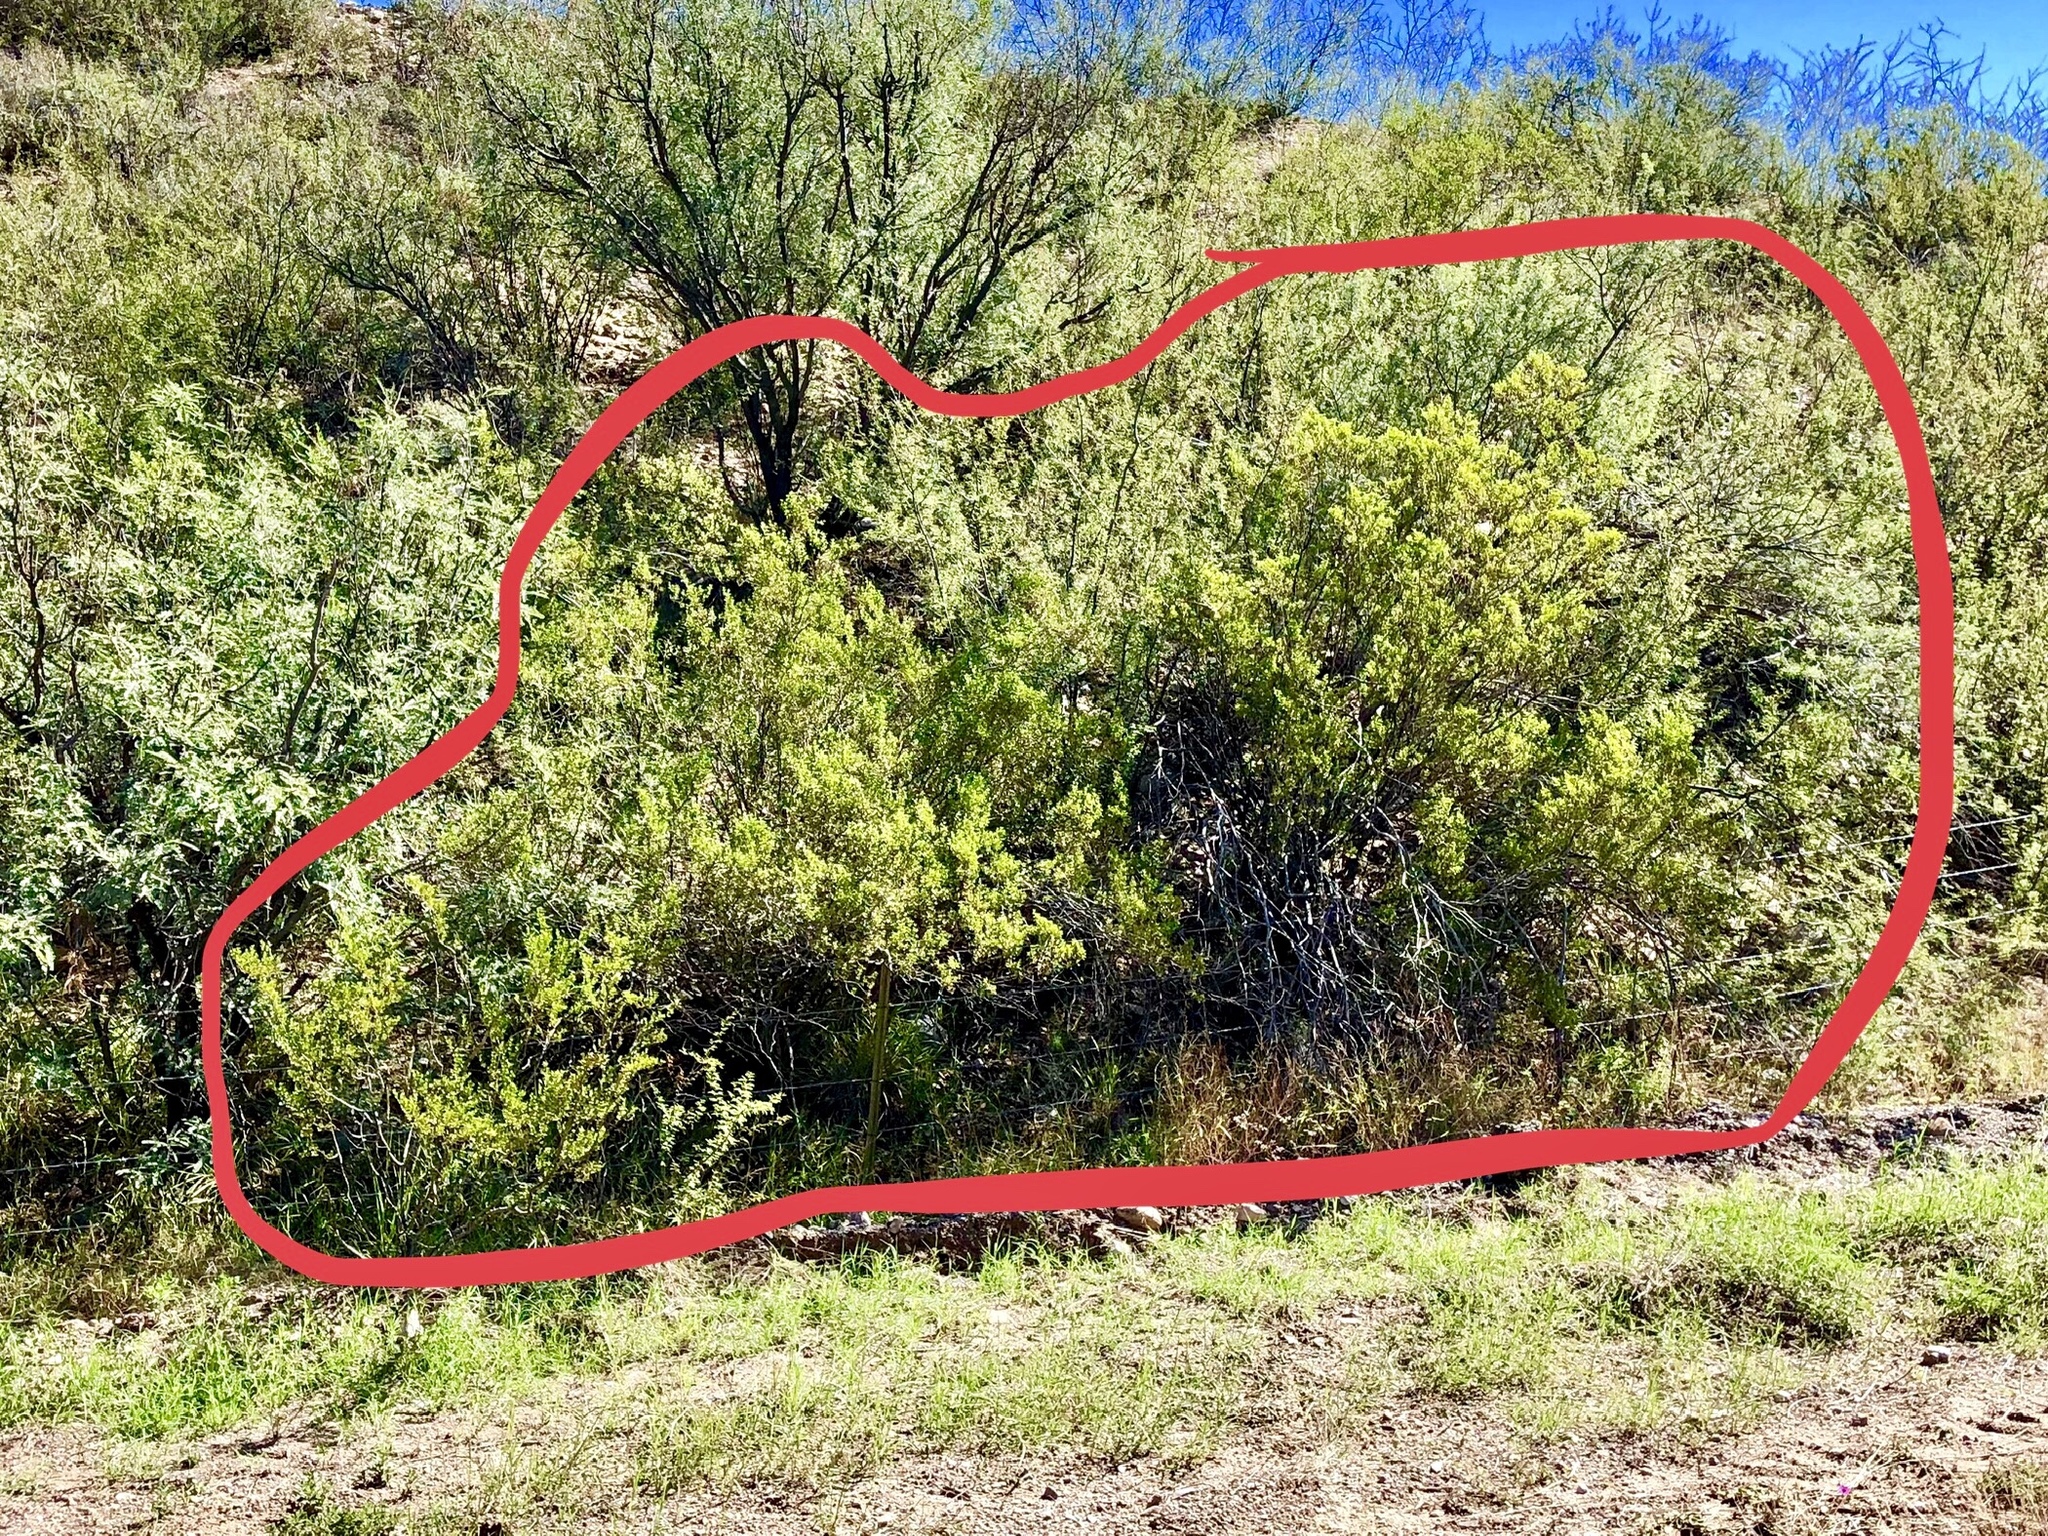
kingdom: Plantae
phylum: Tracheophyta
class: Magnoliopsida
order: Zygophyllales
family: Zygophyllaceae
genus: Larrea
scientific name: Larrea tridentata
